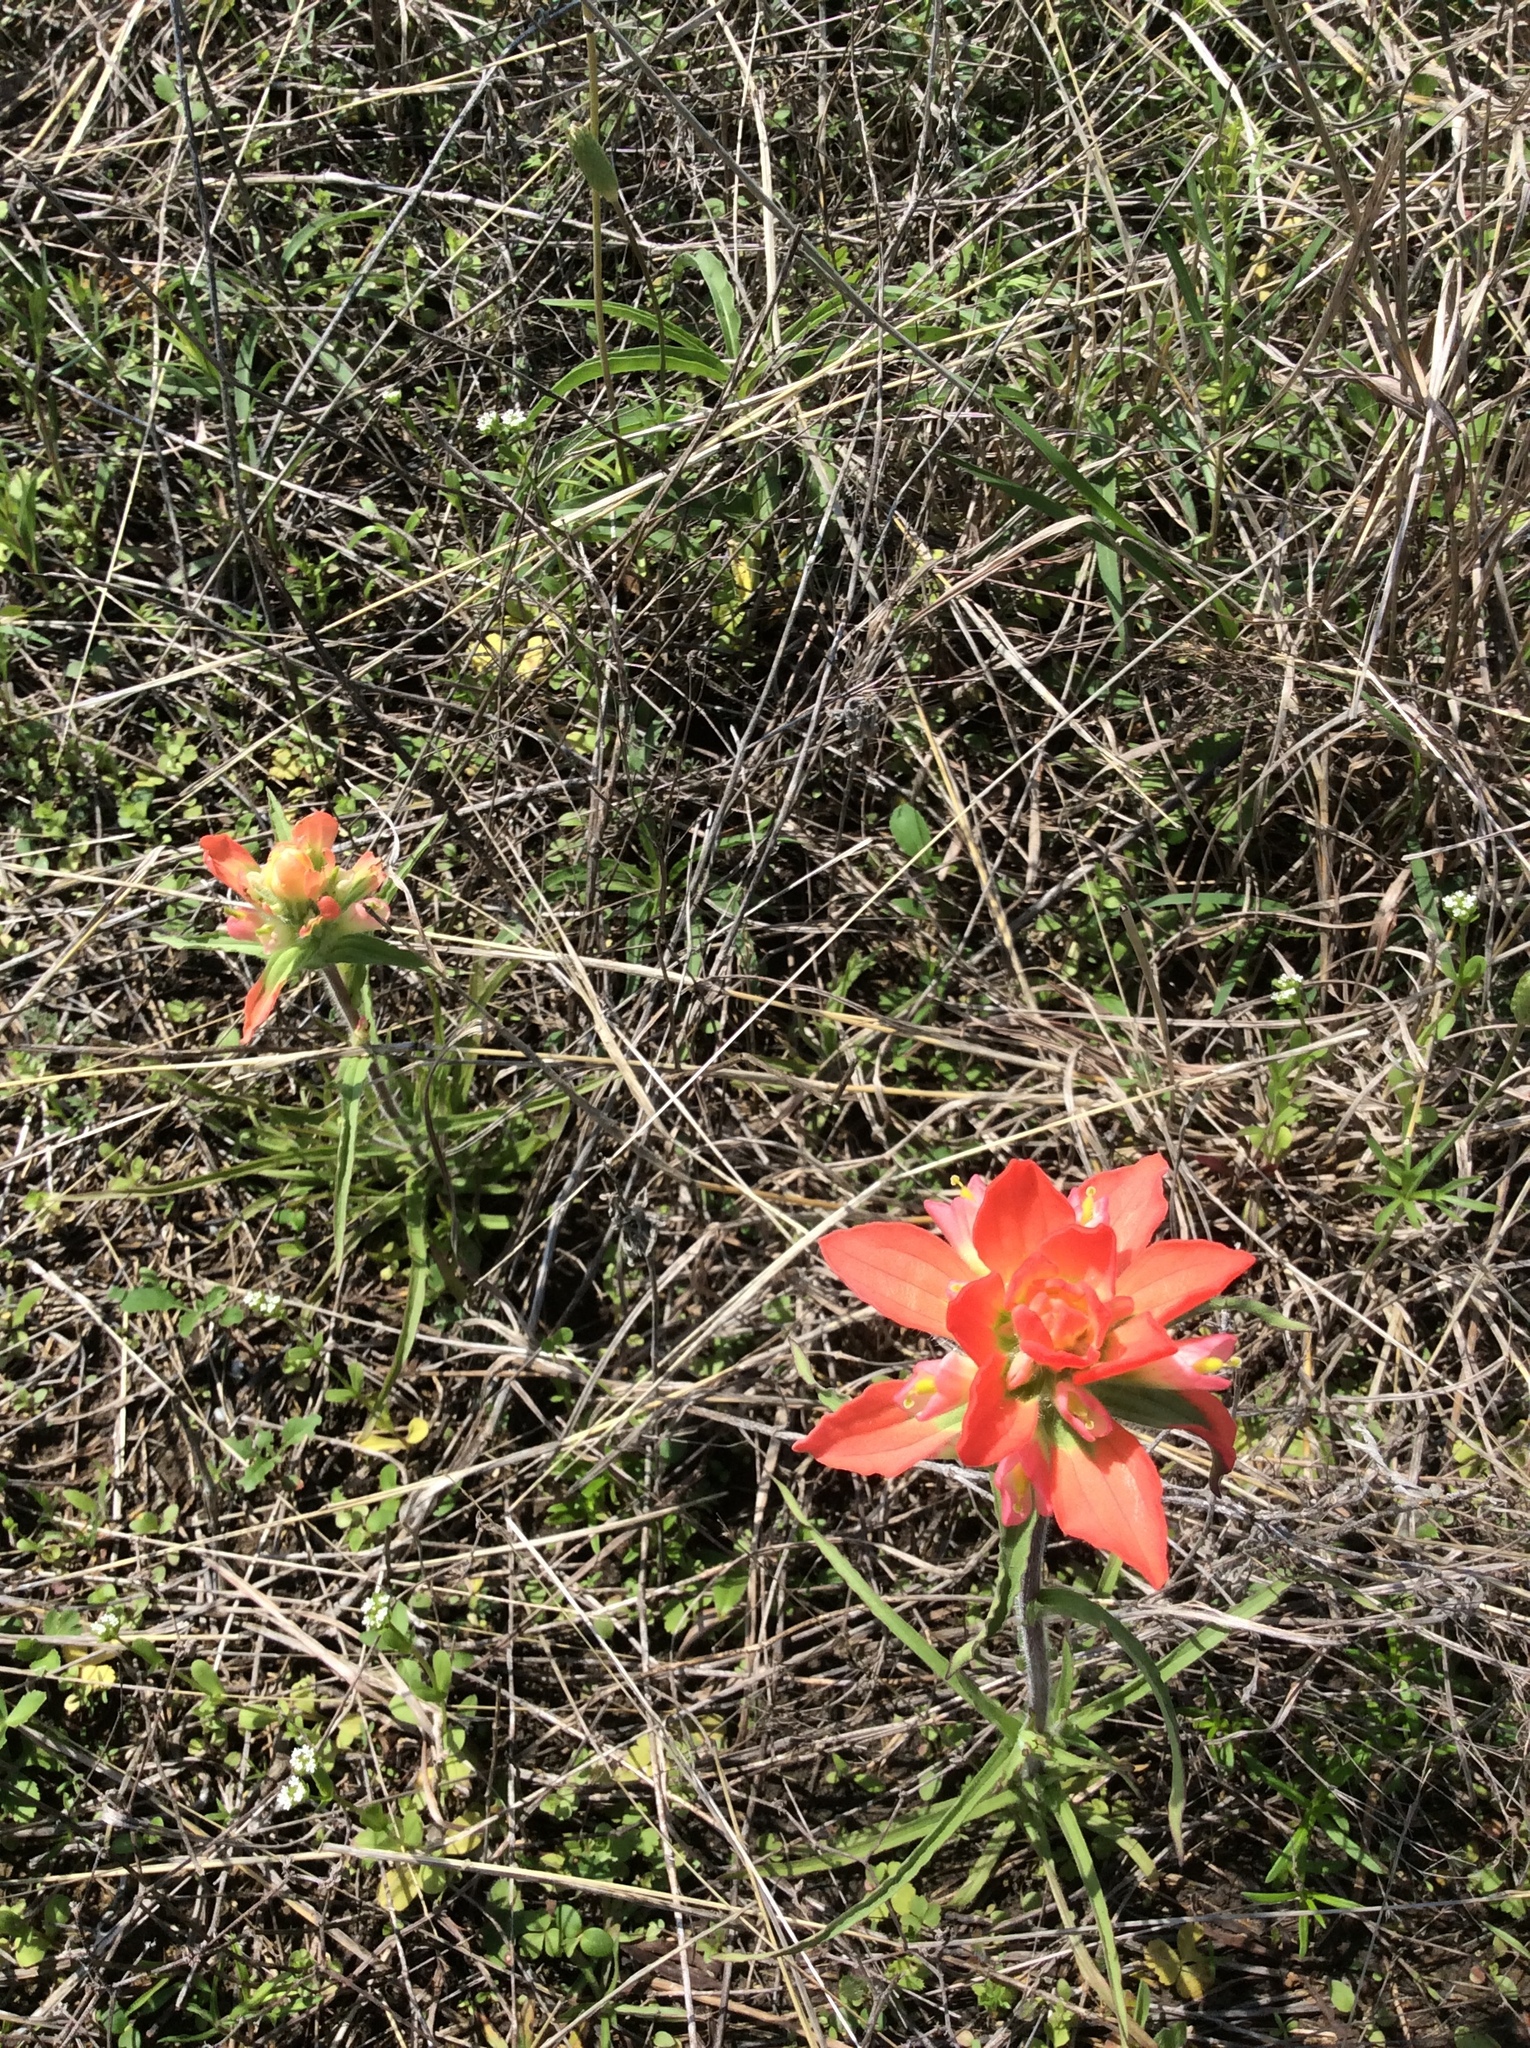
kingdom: Plantae
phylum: Tracheophyta
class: Magnoliopsida
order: Lamiales
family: Orobanchaceae
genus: Castilleja
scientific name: Castilleja indivisa
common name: Texas paintbrush
